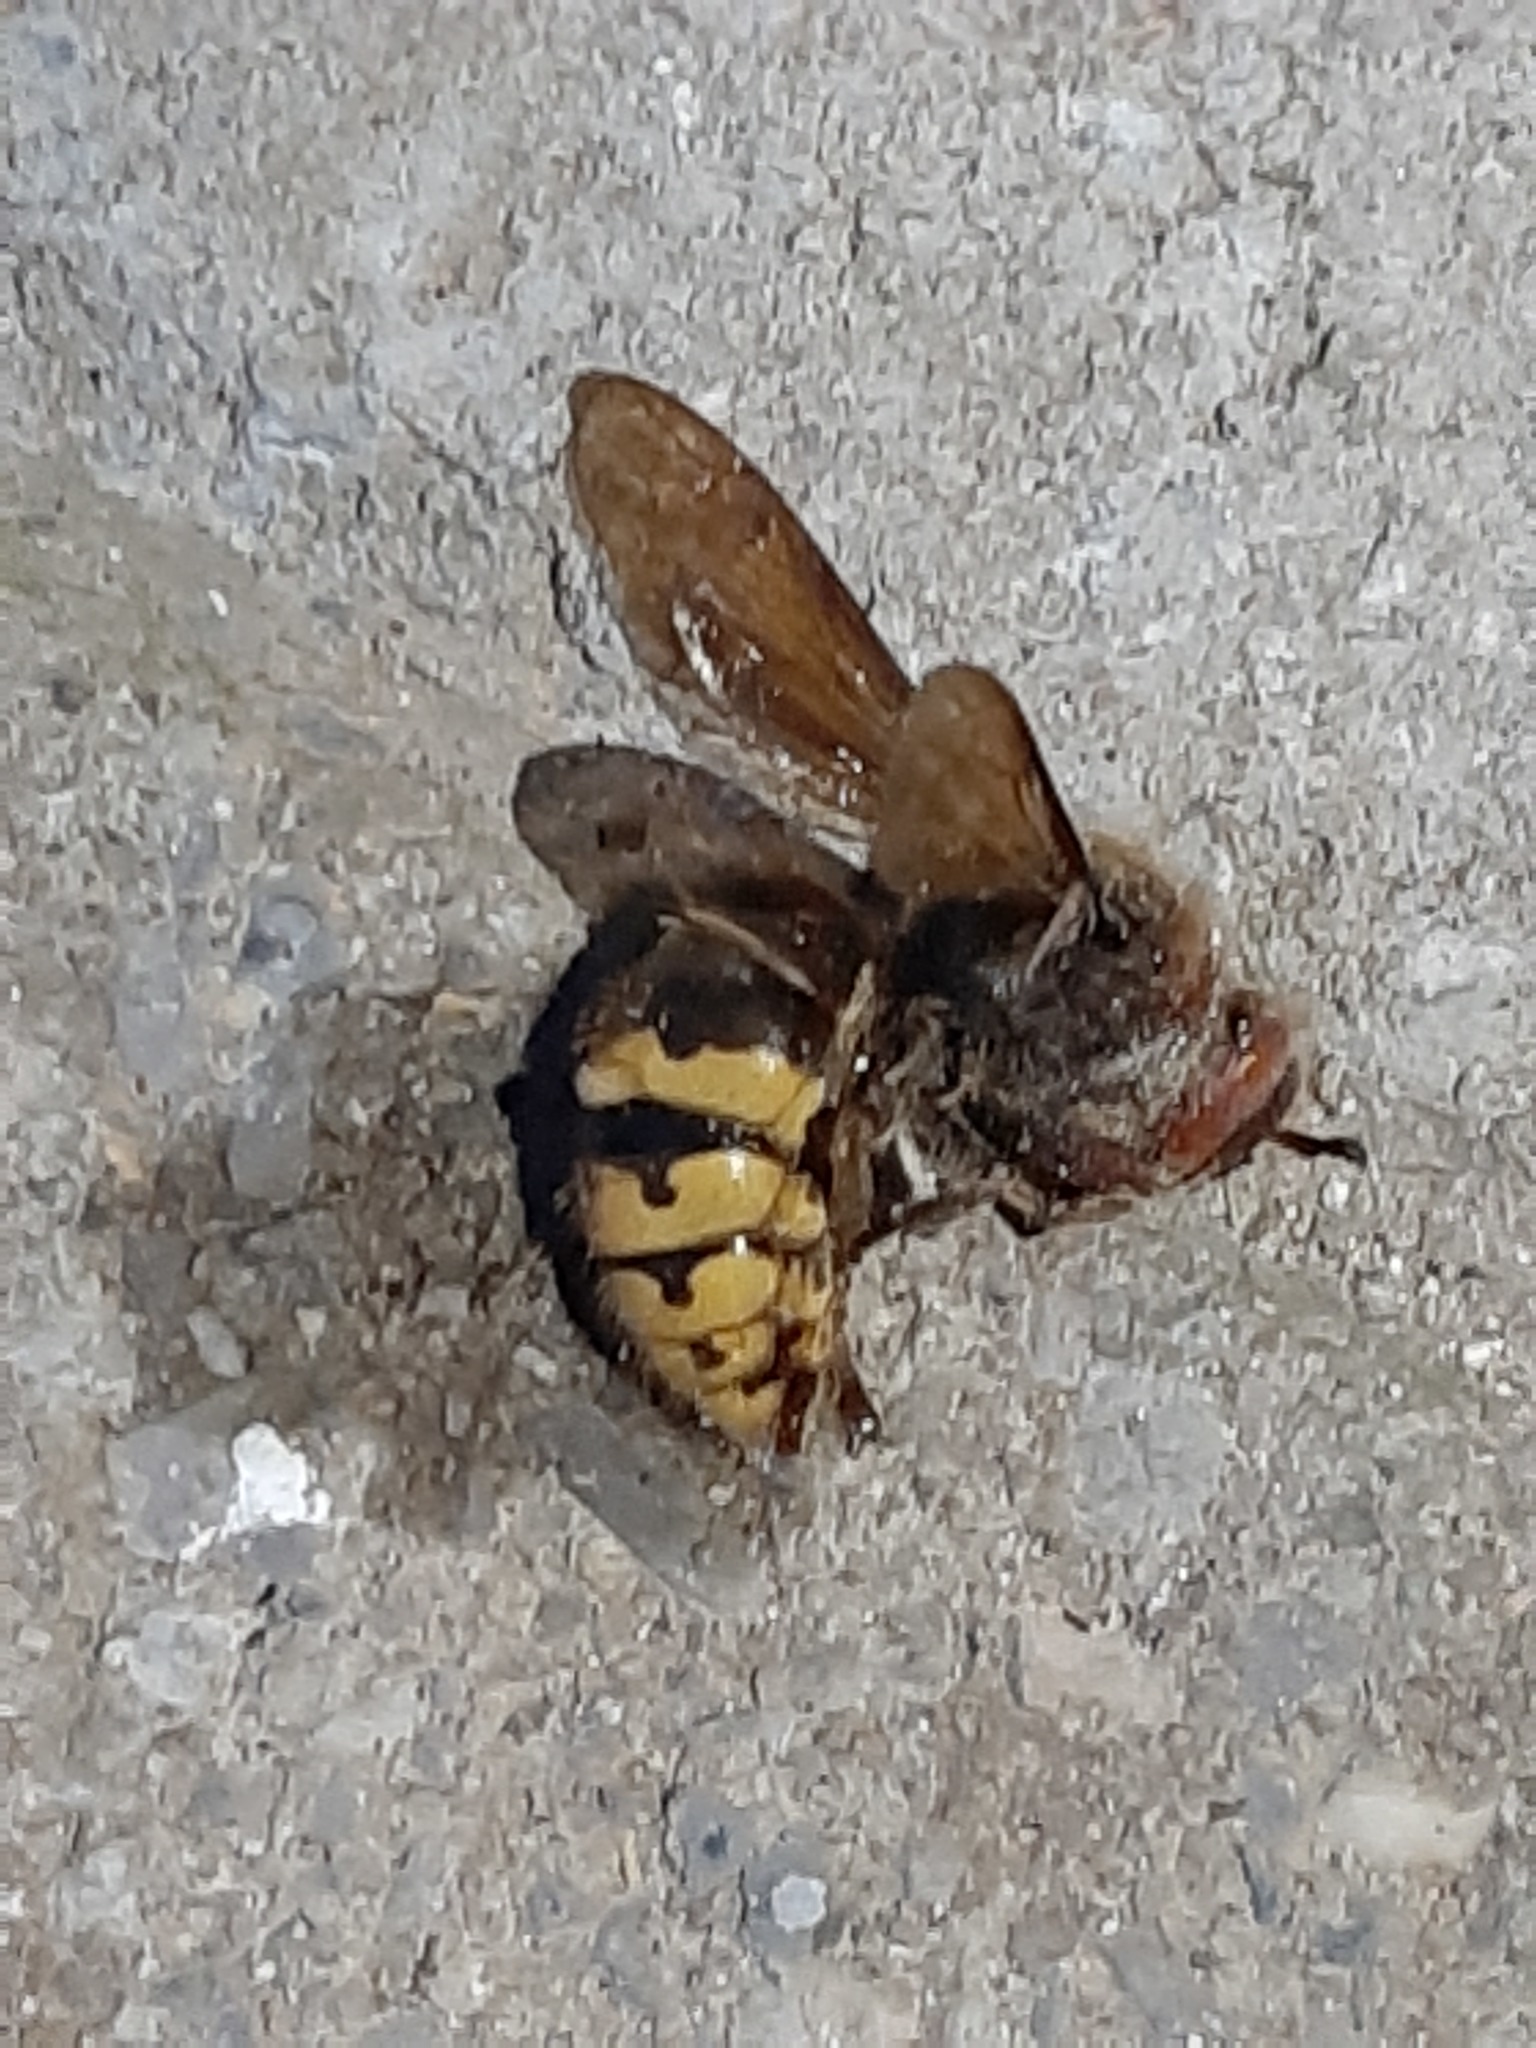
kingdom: Animalia
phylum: Arthropoda
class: Insecta
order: Hymenoptera
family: Vespidae
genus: Vespa
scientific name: Vespa crabro
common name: Hornet
